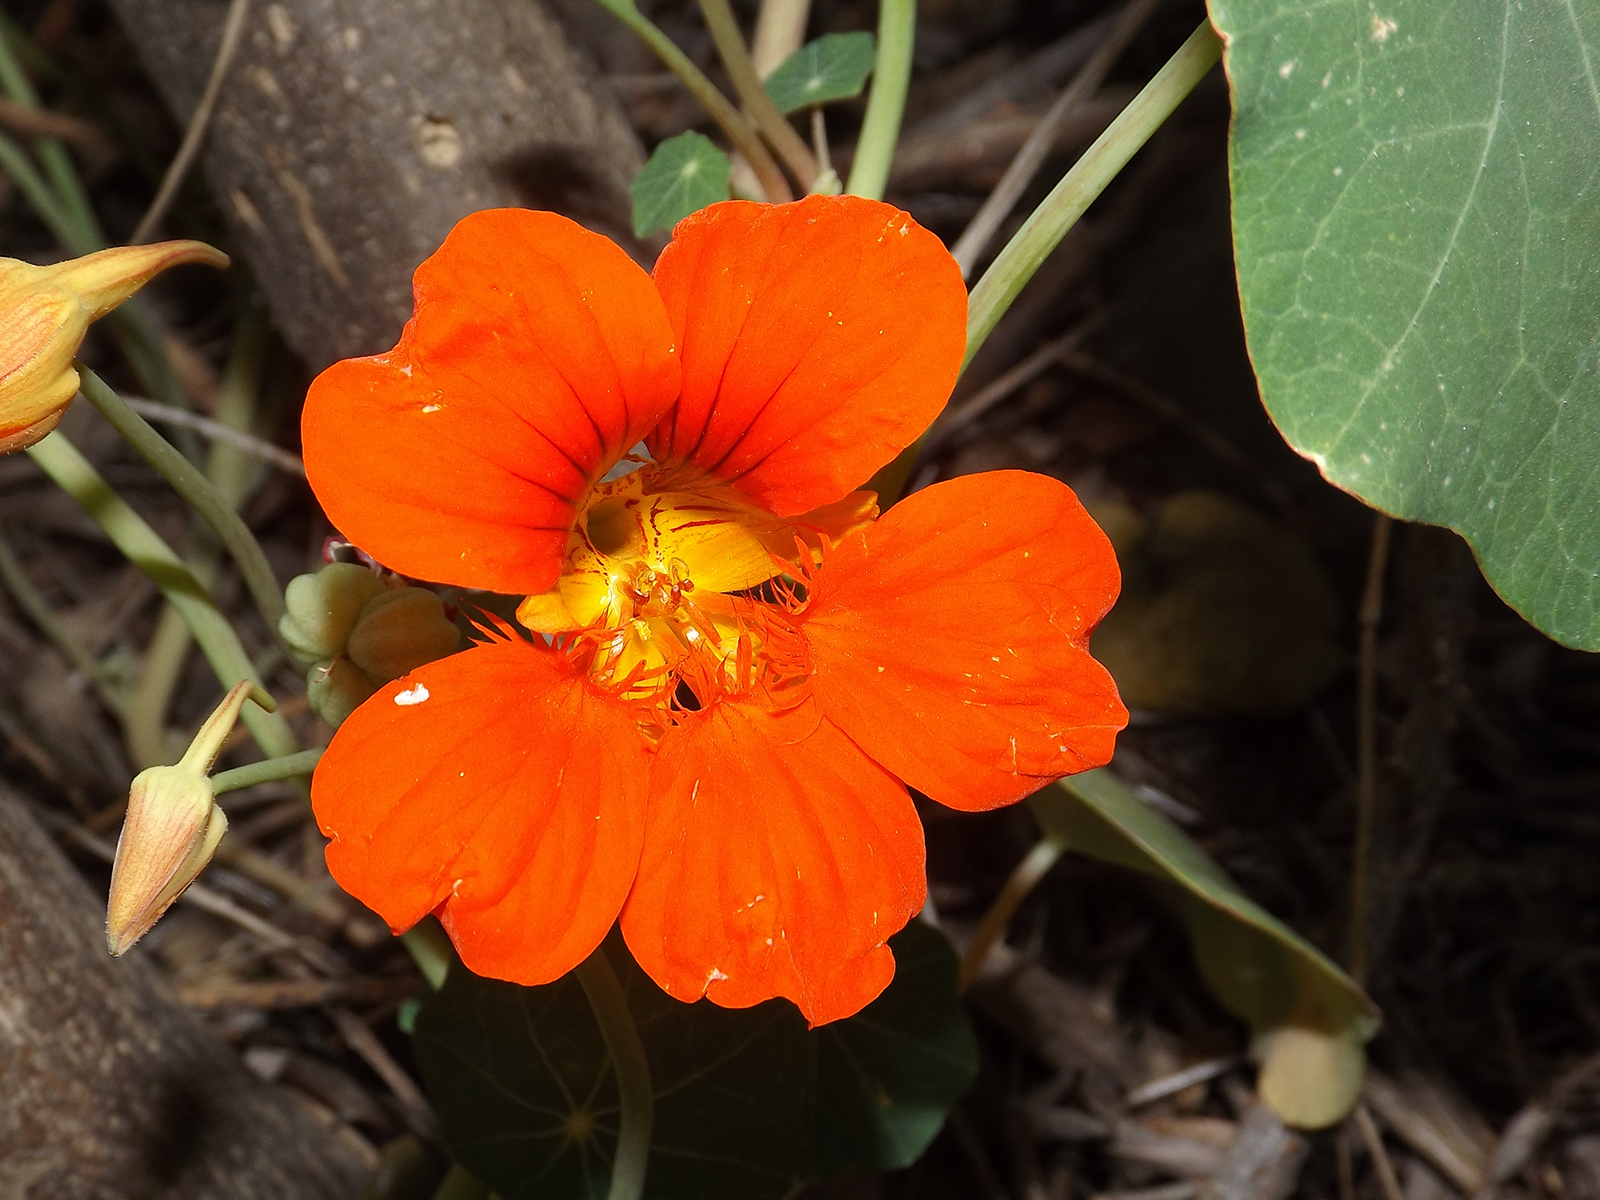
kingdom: Plantae
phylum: Tracheophyta
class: Magnoliopsida
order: Brassicales
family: Tropaeolaceae
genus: Tropaeolum
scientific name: Tropaeolum majus
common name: Nasturtium
